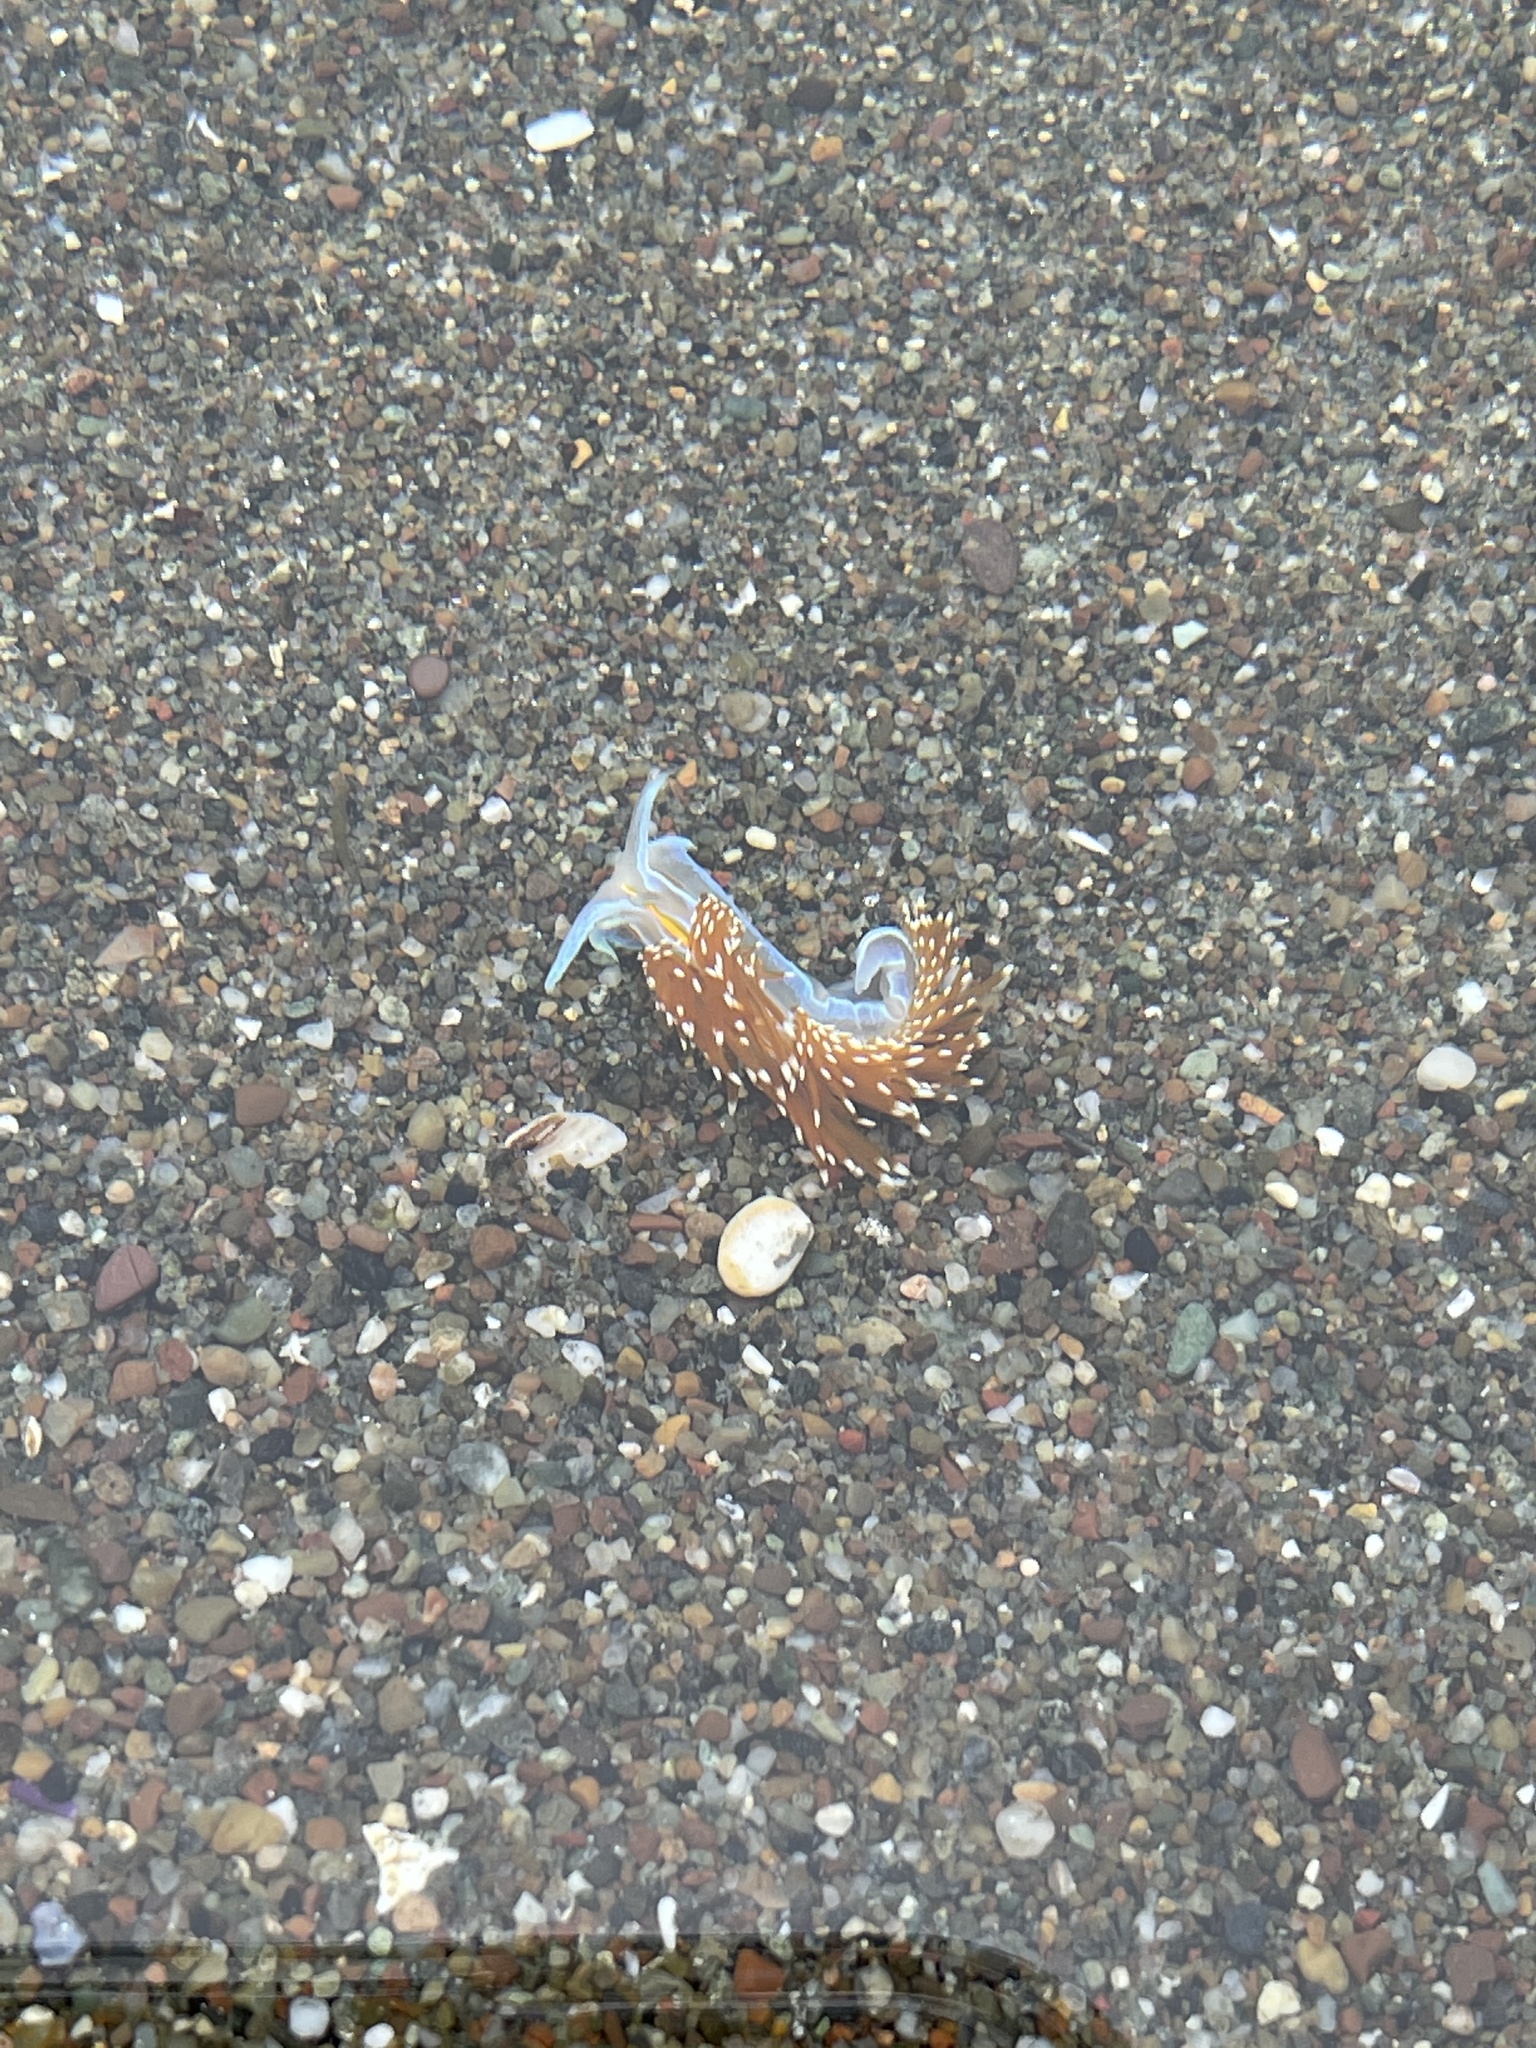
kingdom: Animalia
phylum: Mollusca
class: Gastropoda
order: Nudibranchia
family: Myrrhinidae
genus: Hermissenda
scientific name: Hermissenda opalescens
